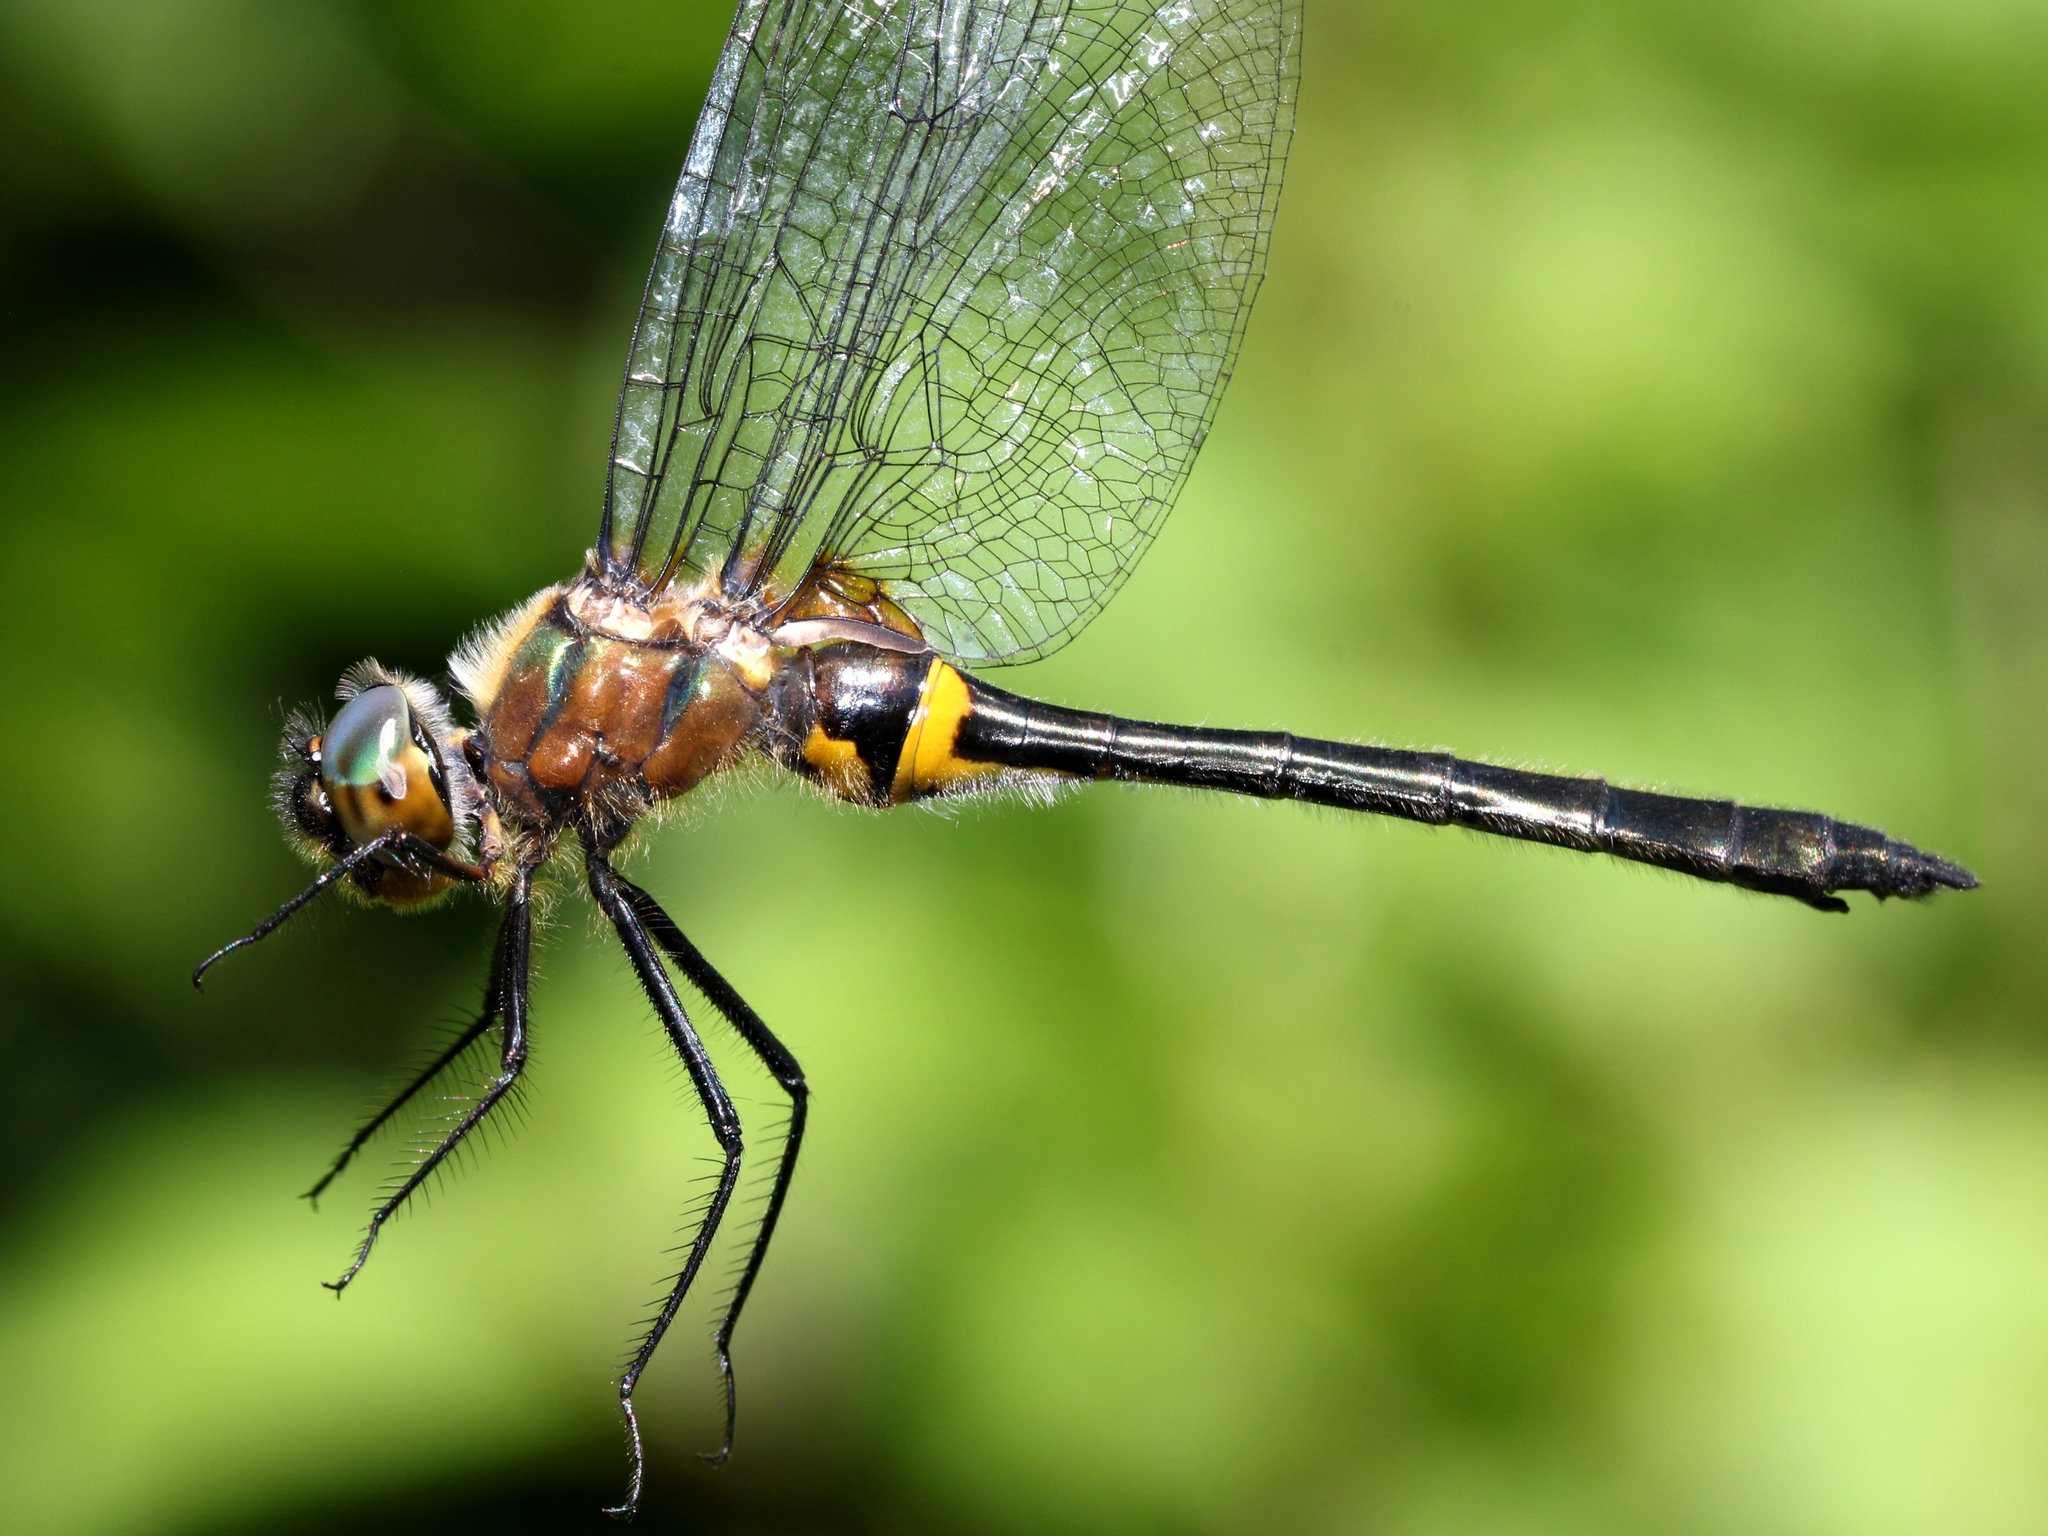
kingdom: Animalia
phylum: Arthropoda
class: Insecta
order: Odonata
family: Corduliidae
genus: Dorocordulia
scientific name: Dorocordulia libera
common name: Racket-tailed emerald
